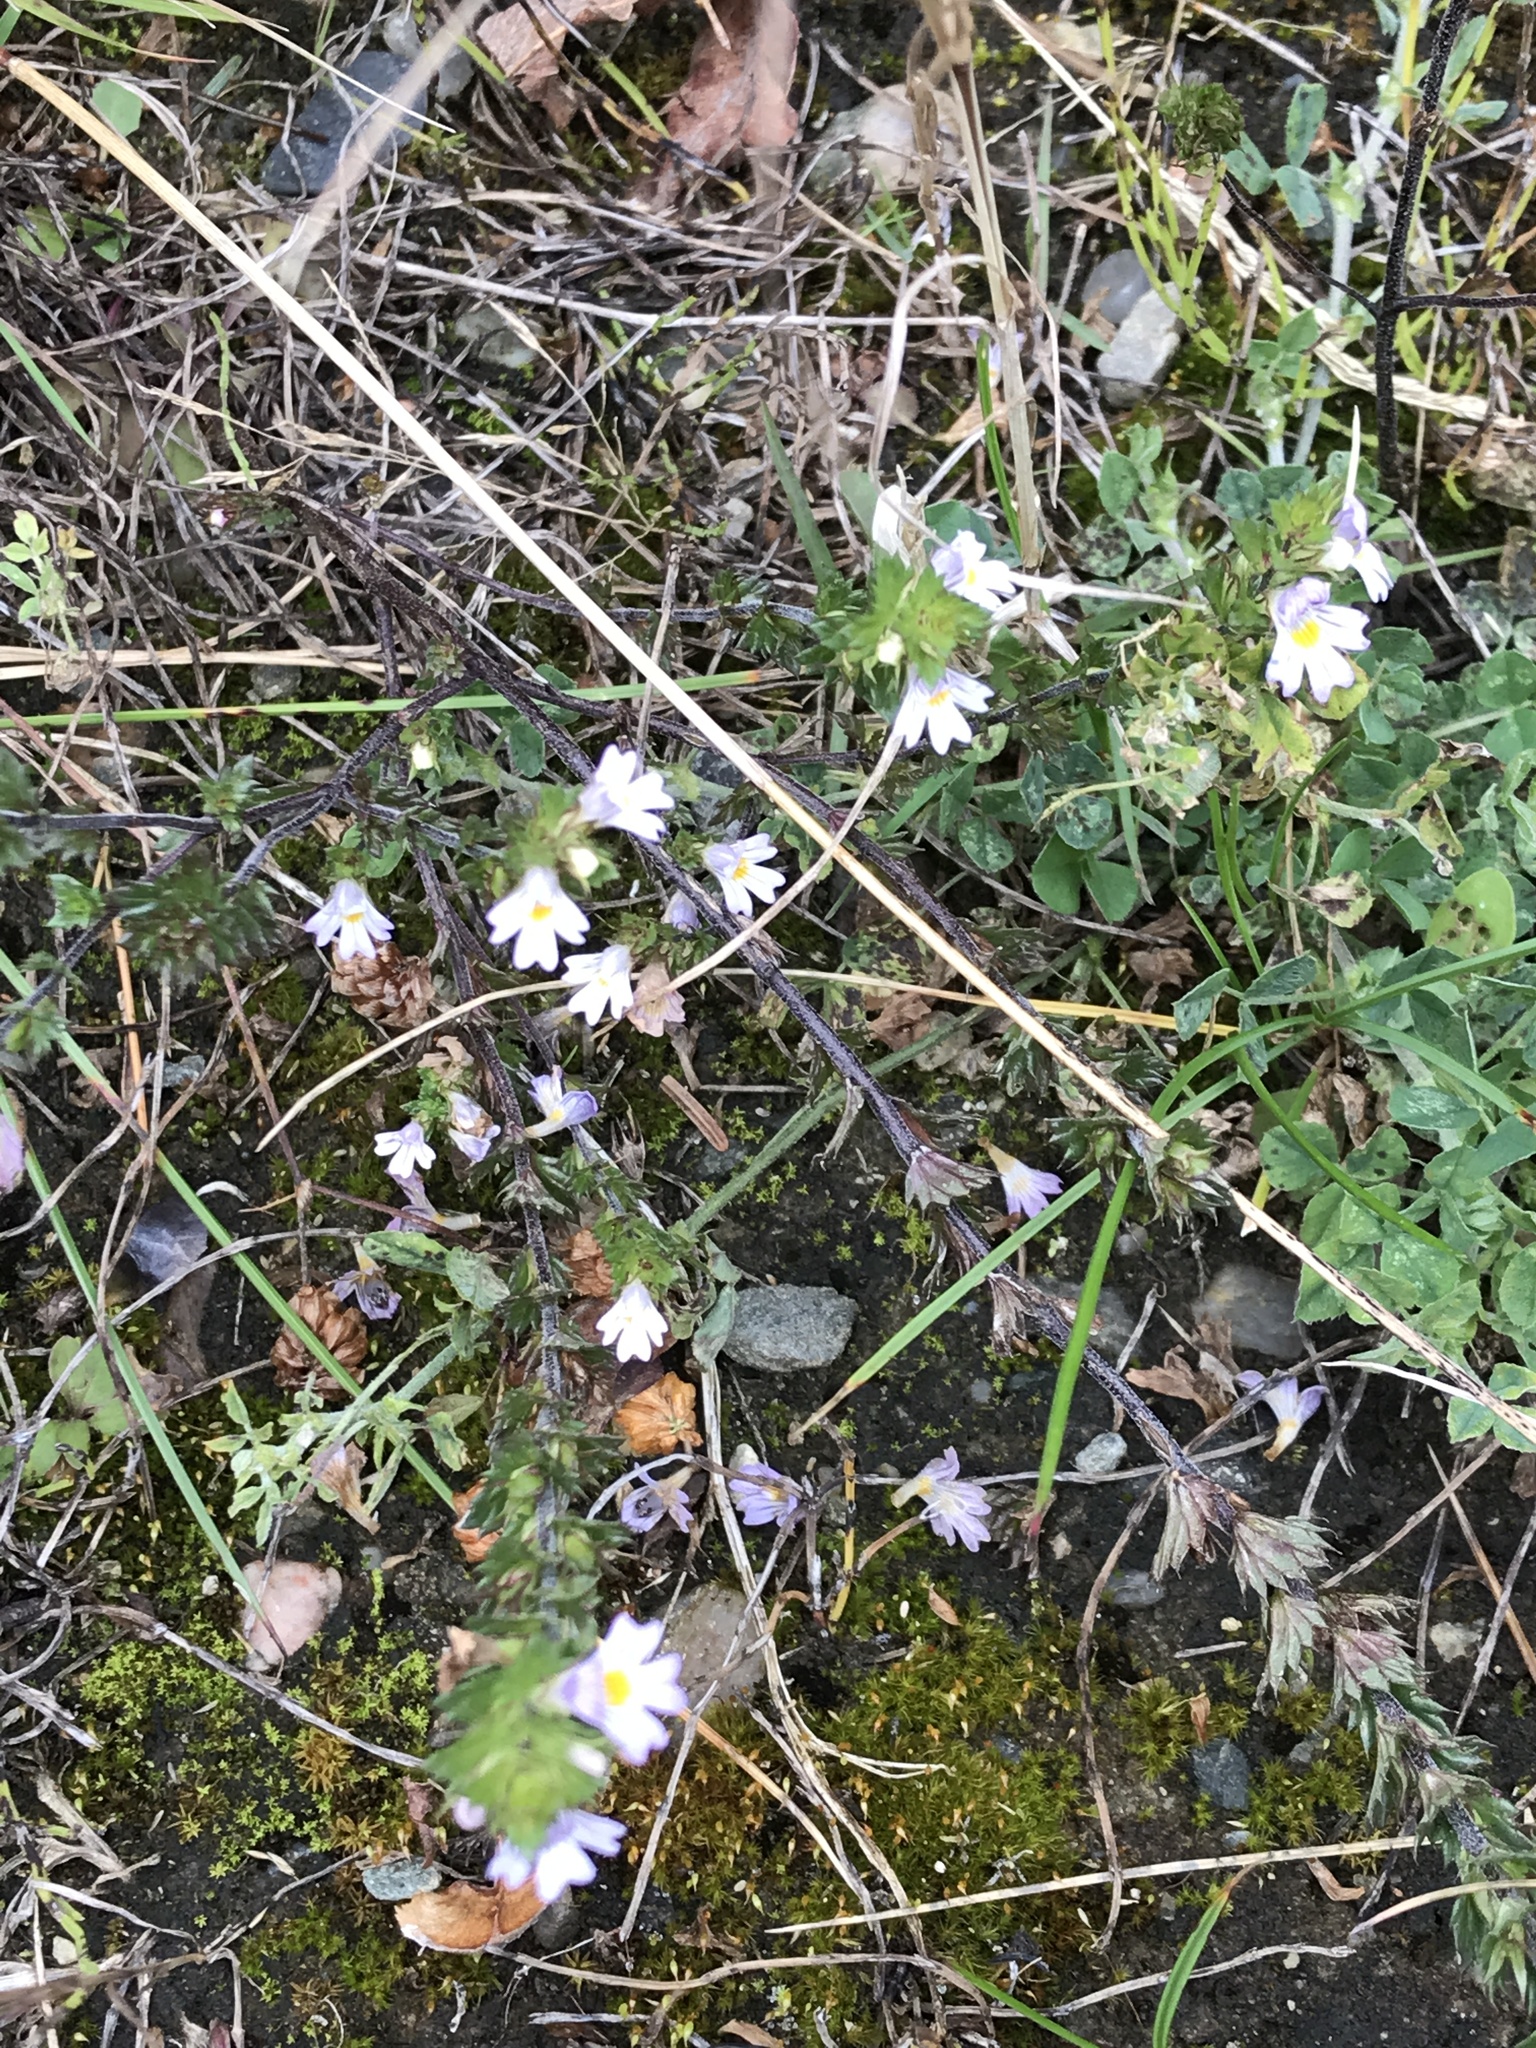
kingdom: Plantae
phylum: Tracheophyta
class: Magnoliopsida
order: Lamiales
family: Orobanchaceae
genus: Euphrasia
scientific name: Euphrasia nemorosa
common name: Common eyebright
